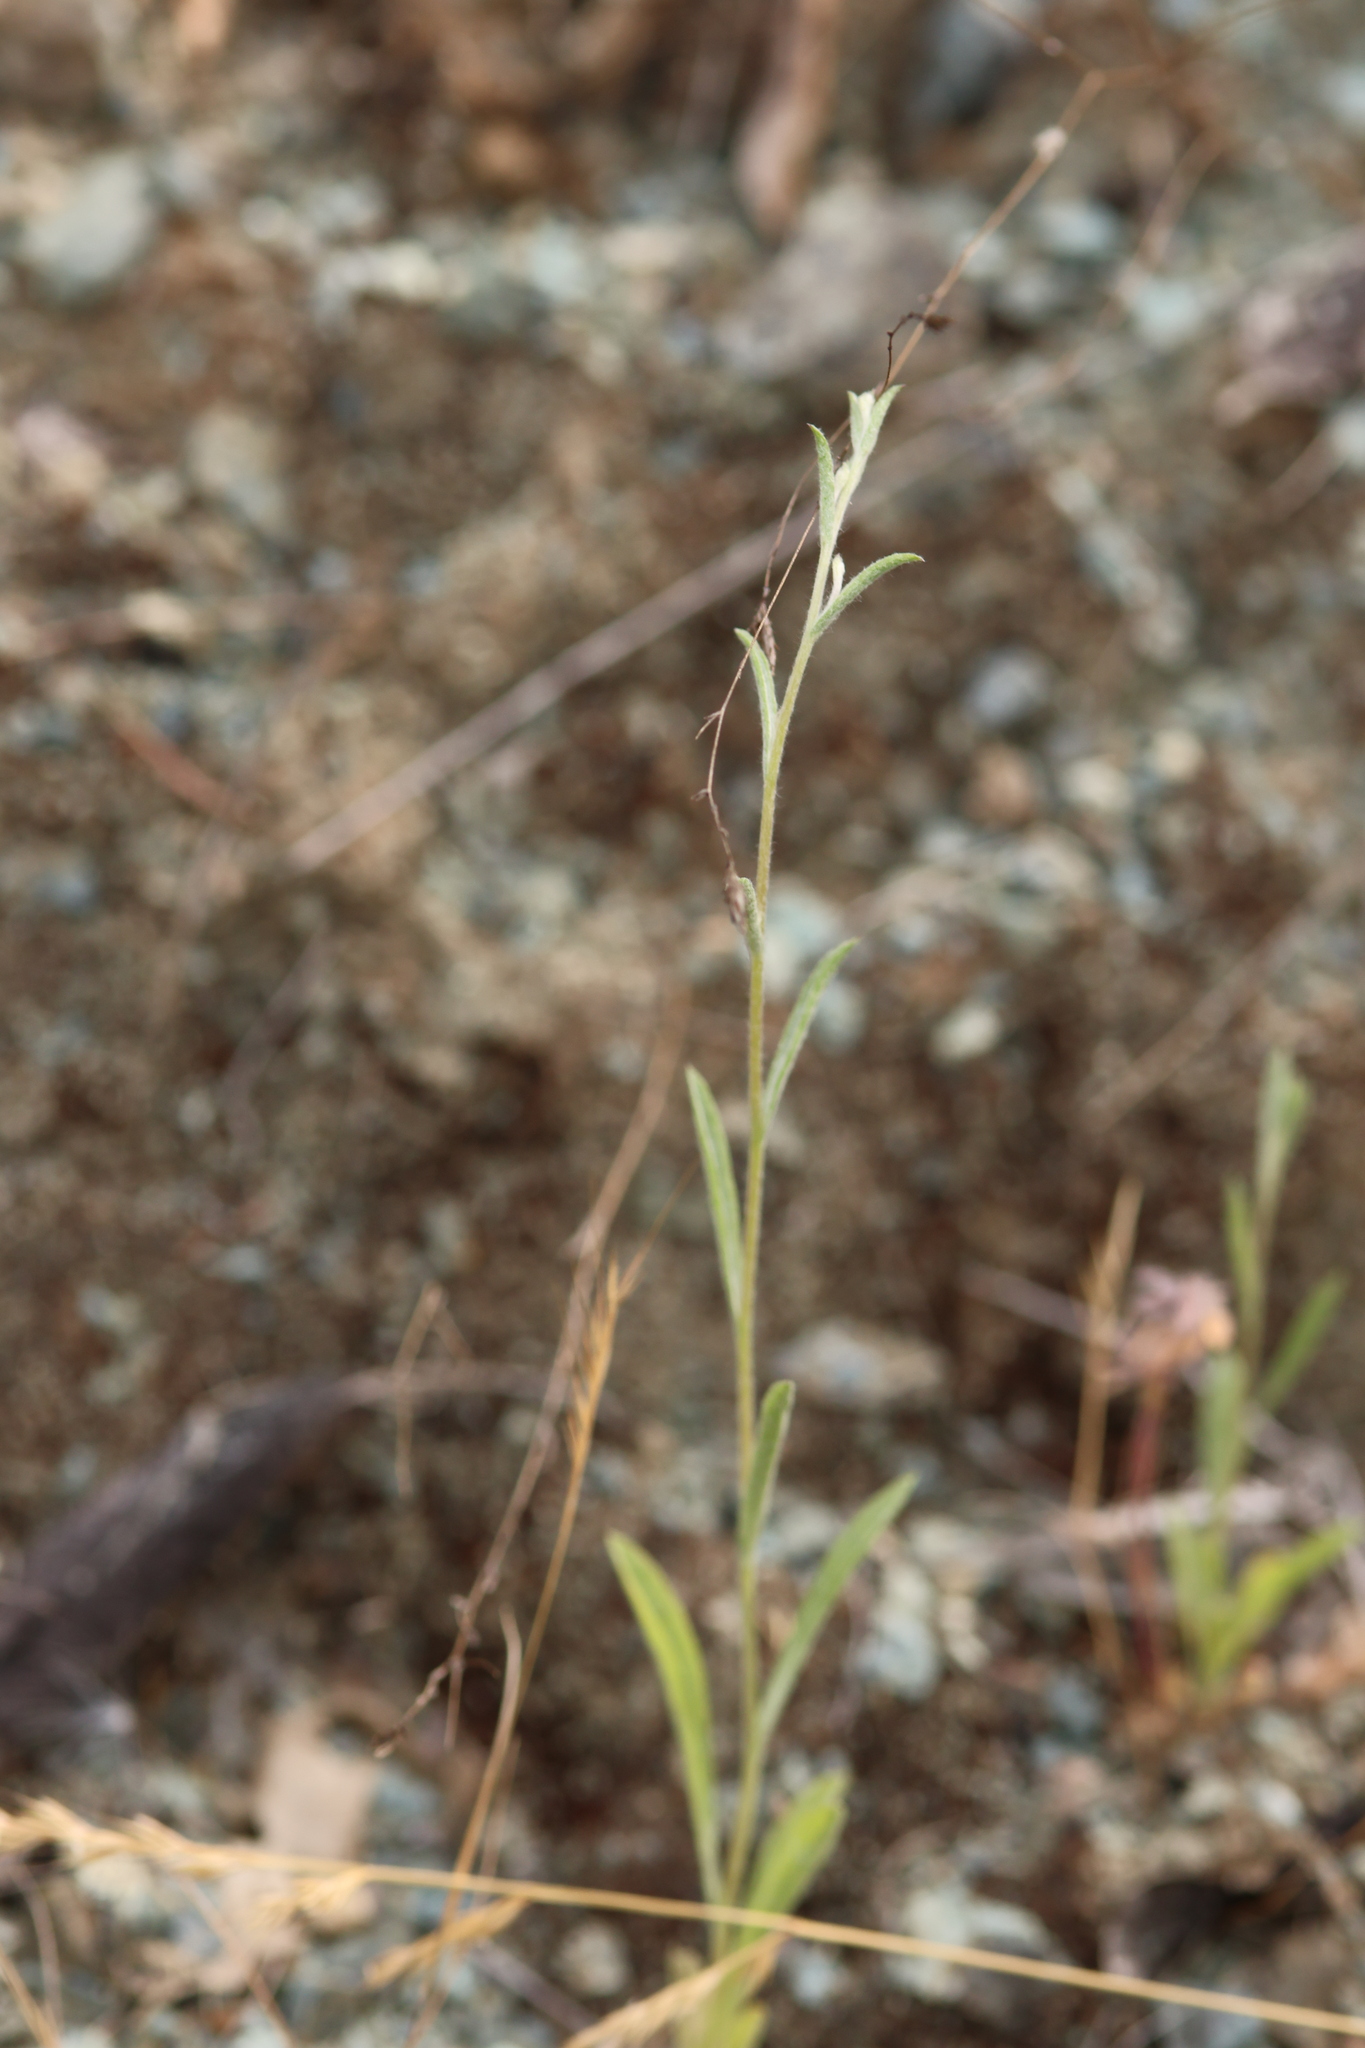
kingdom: Plantae
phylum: Tracheophyta
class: Magnoliopsida
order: Asterales
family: Asteraceae
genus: Lessingia
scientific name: Lessingia micradenia
